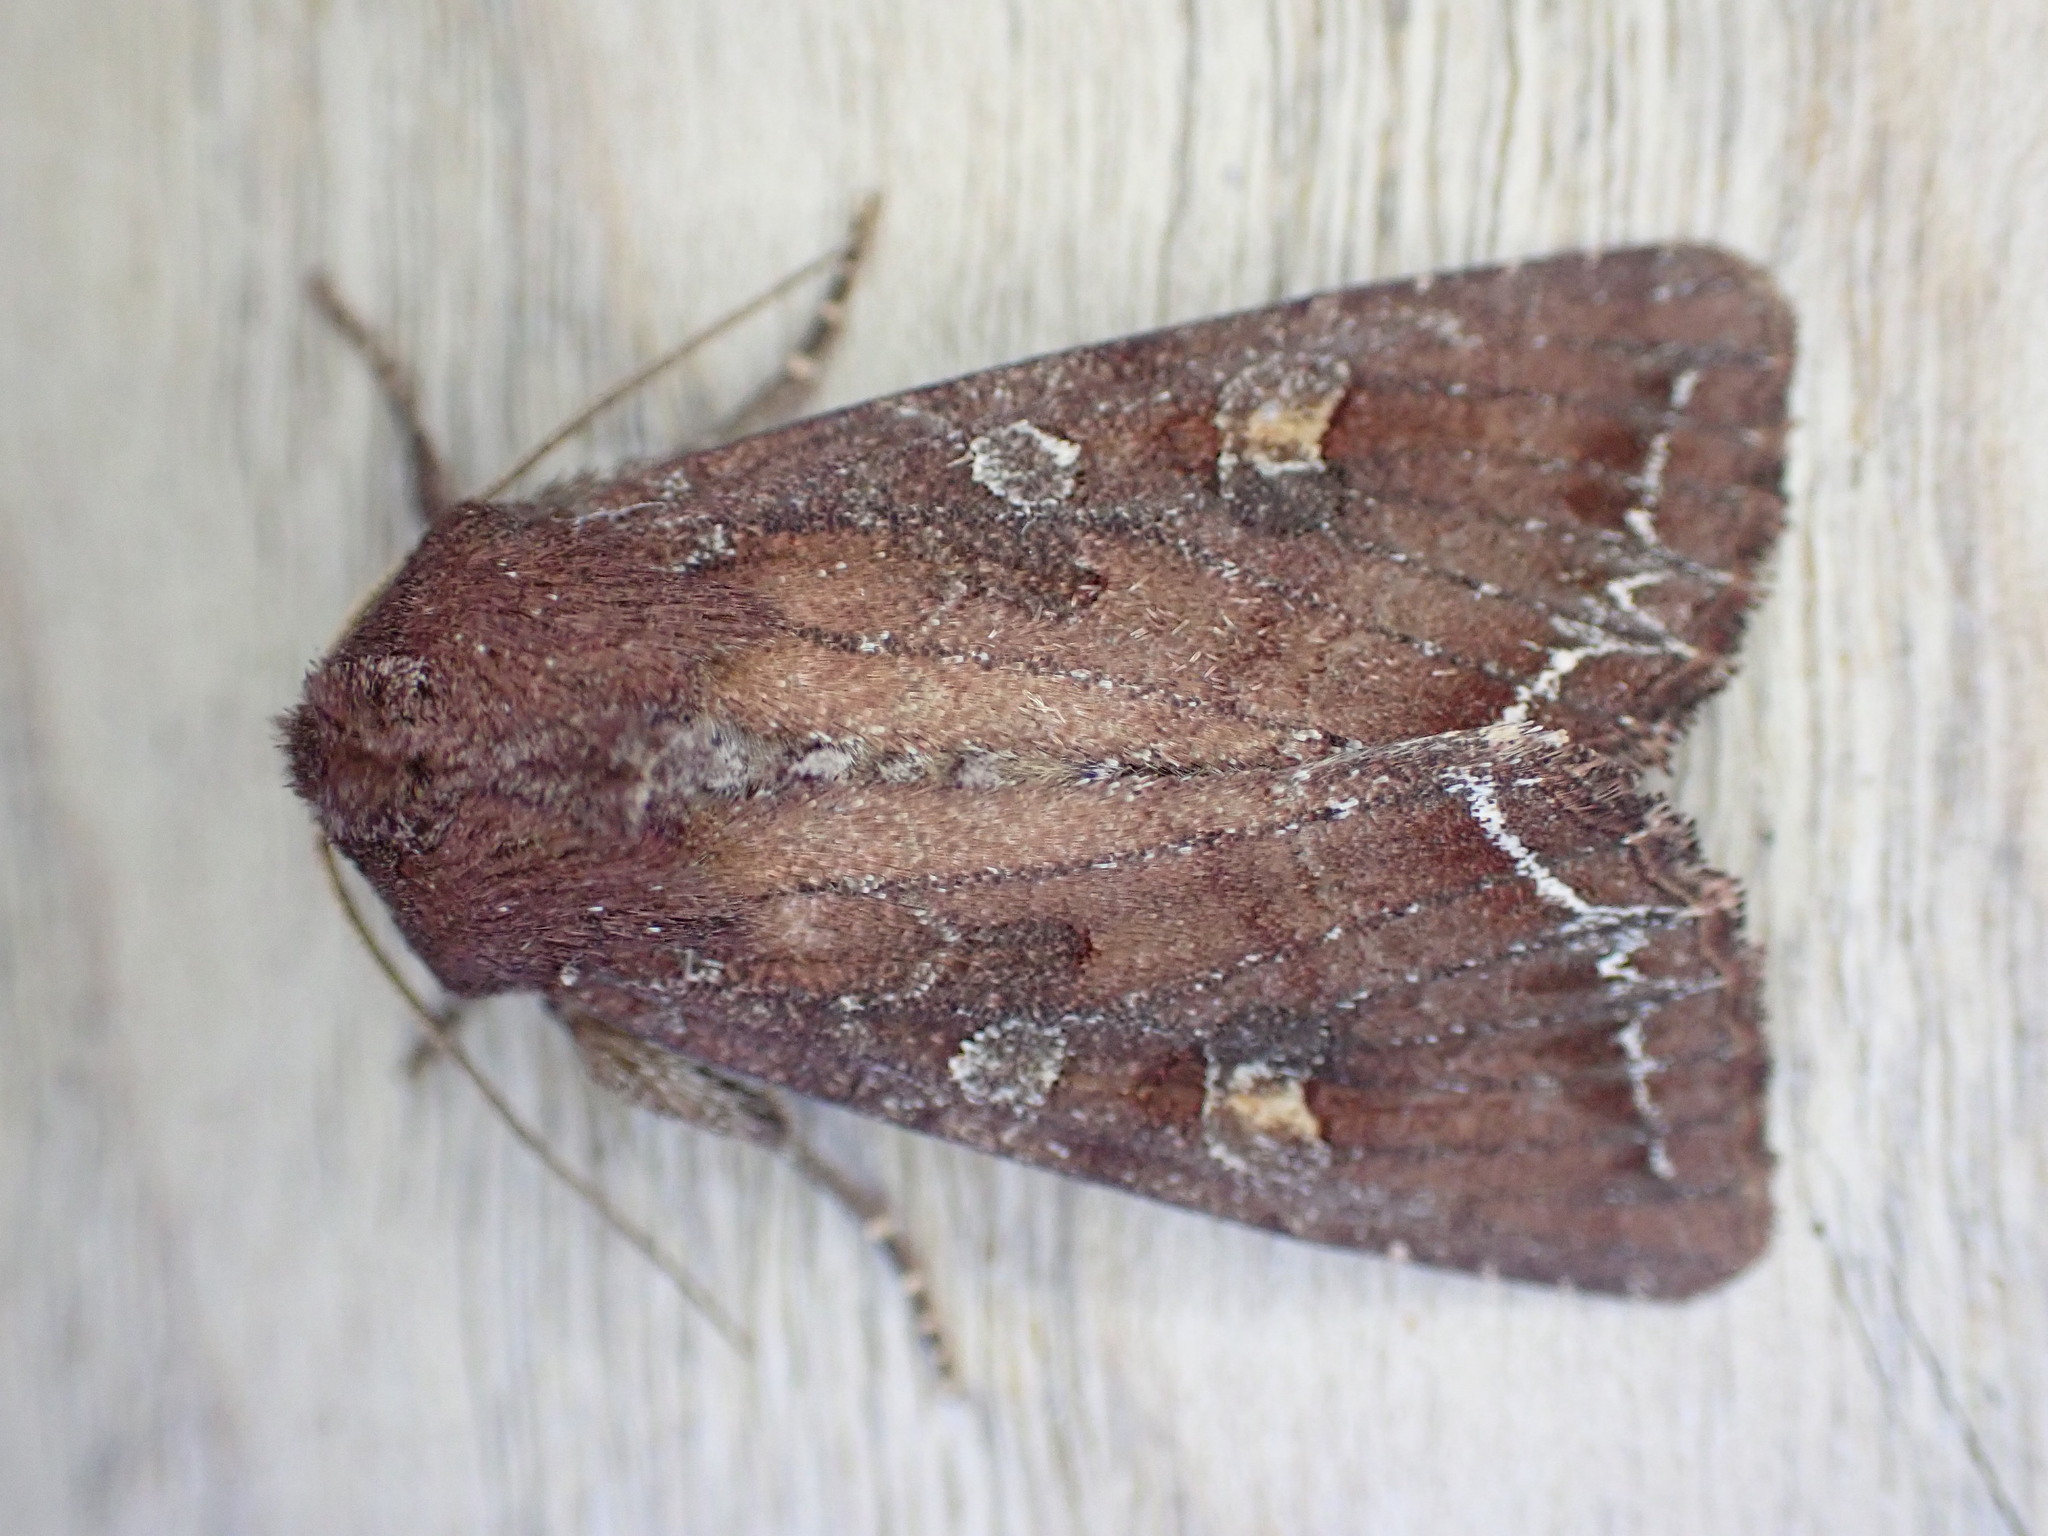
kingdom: Animalia
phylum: Arthropoda
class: Insecta
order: Lepidoptera
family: Noctuidae
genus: Lacanobia
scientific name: Lacanobia oleracea
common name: Bright-line brown-eye
